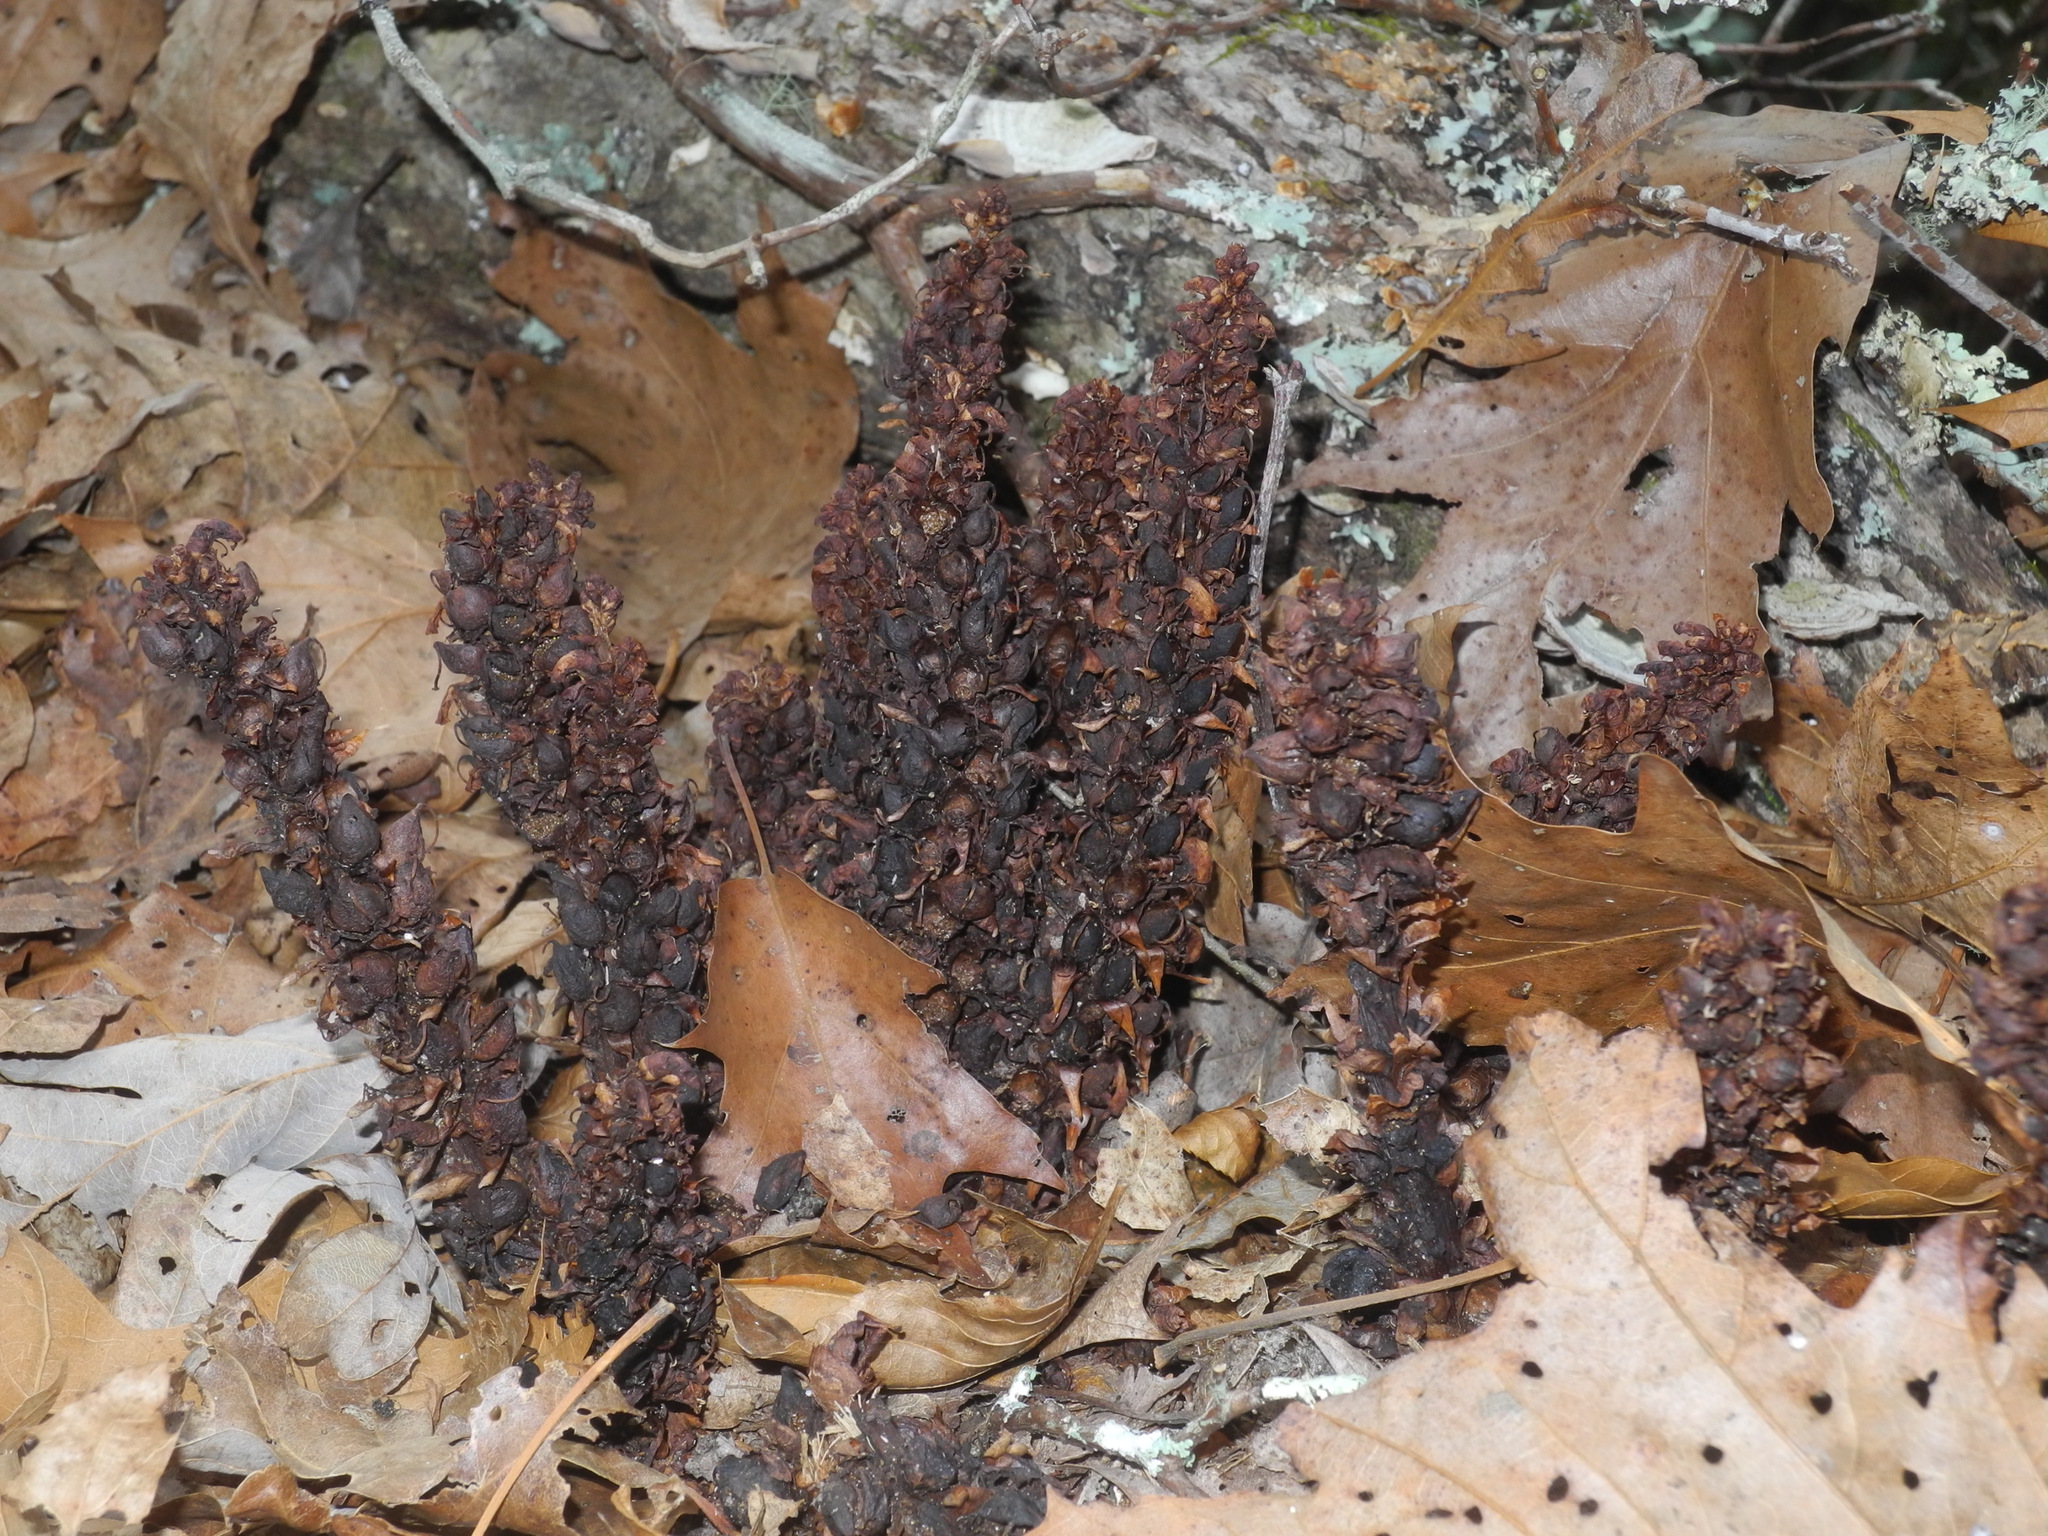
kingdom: Plantae
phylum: Tracheophyta
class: Magnoliopsida
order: Lamiales
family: Orobanchaceae
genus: Conopholis
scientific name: Conopholis americana
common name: American cancer-root
